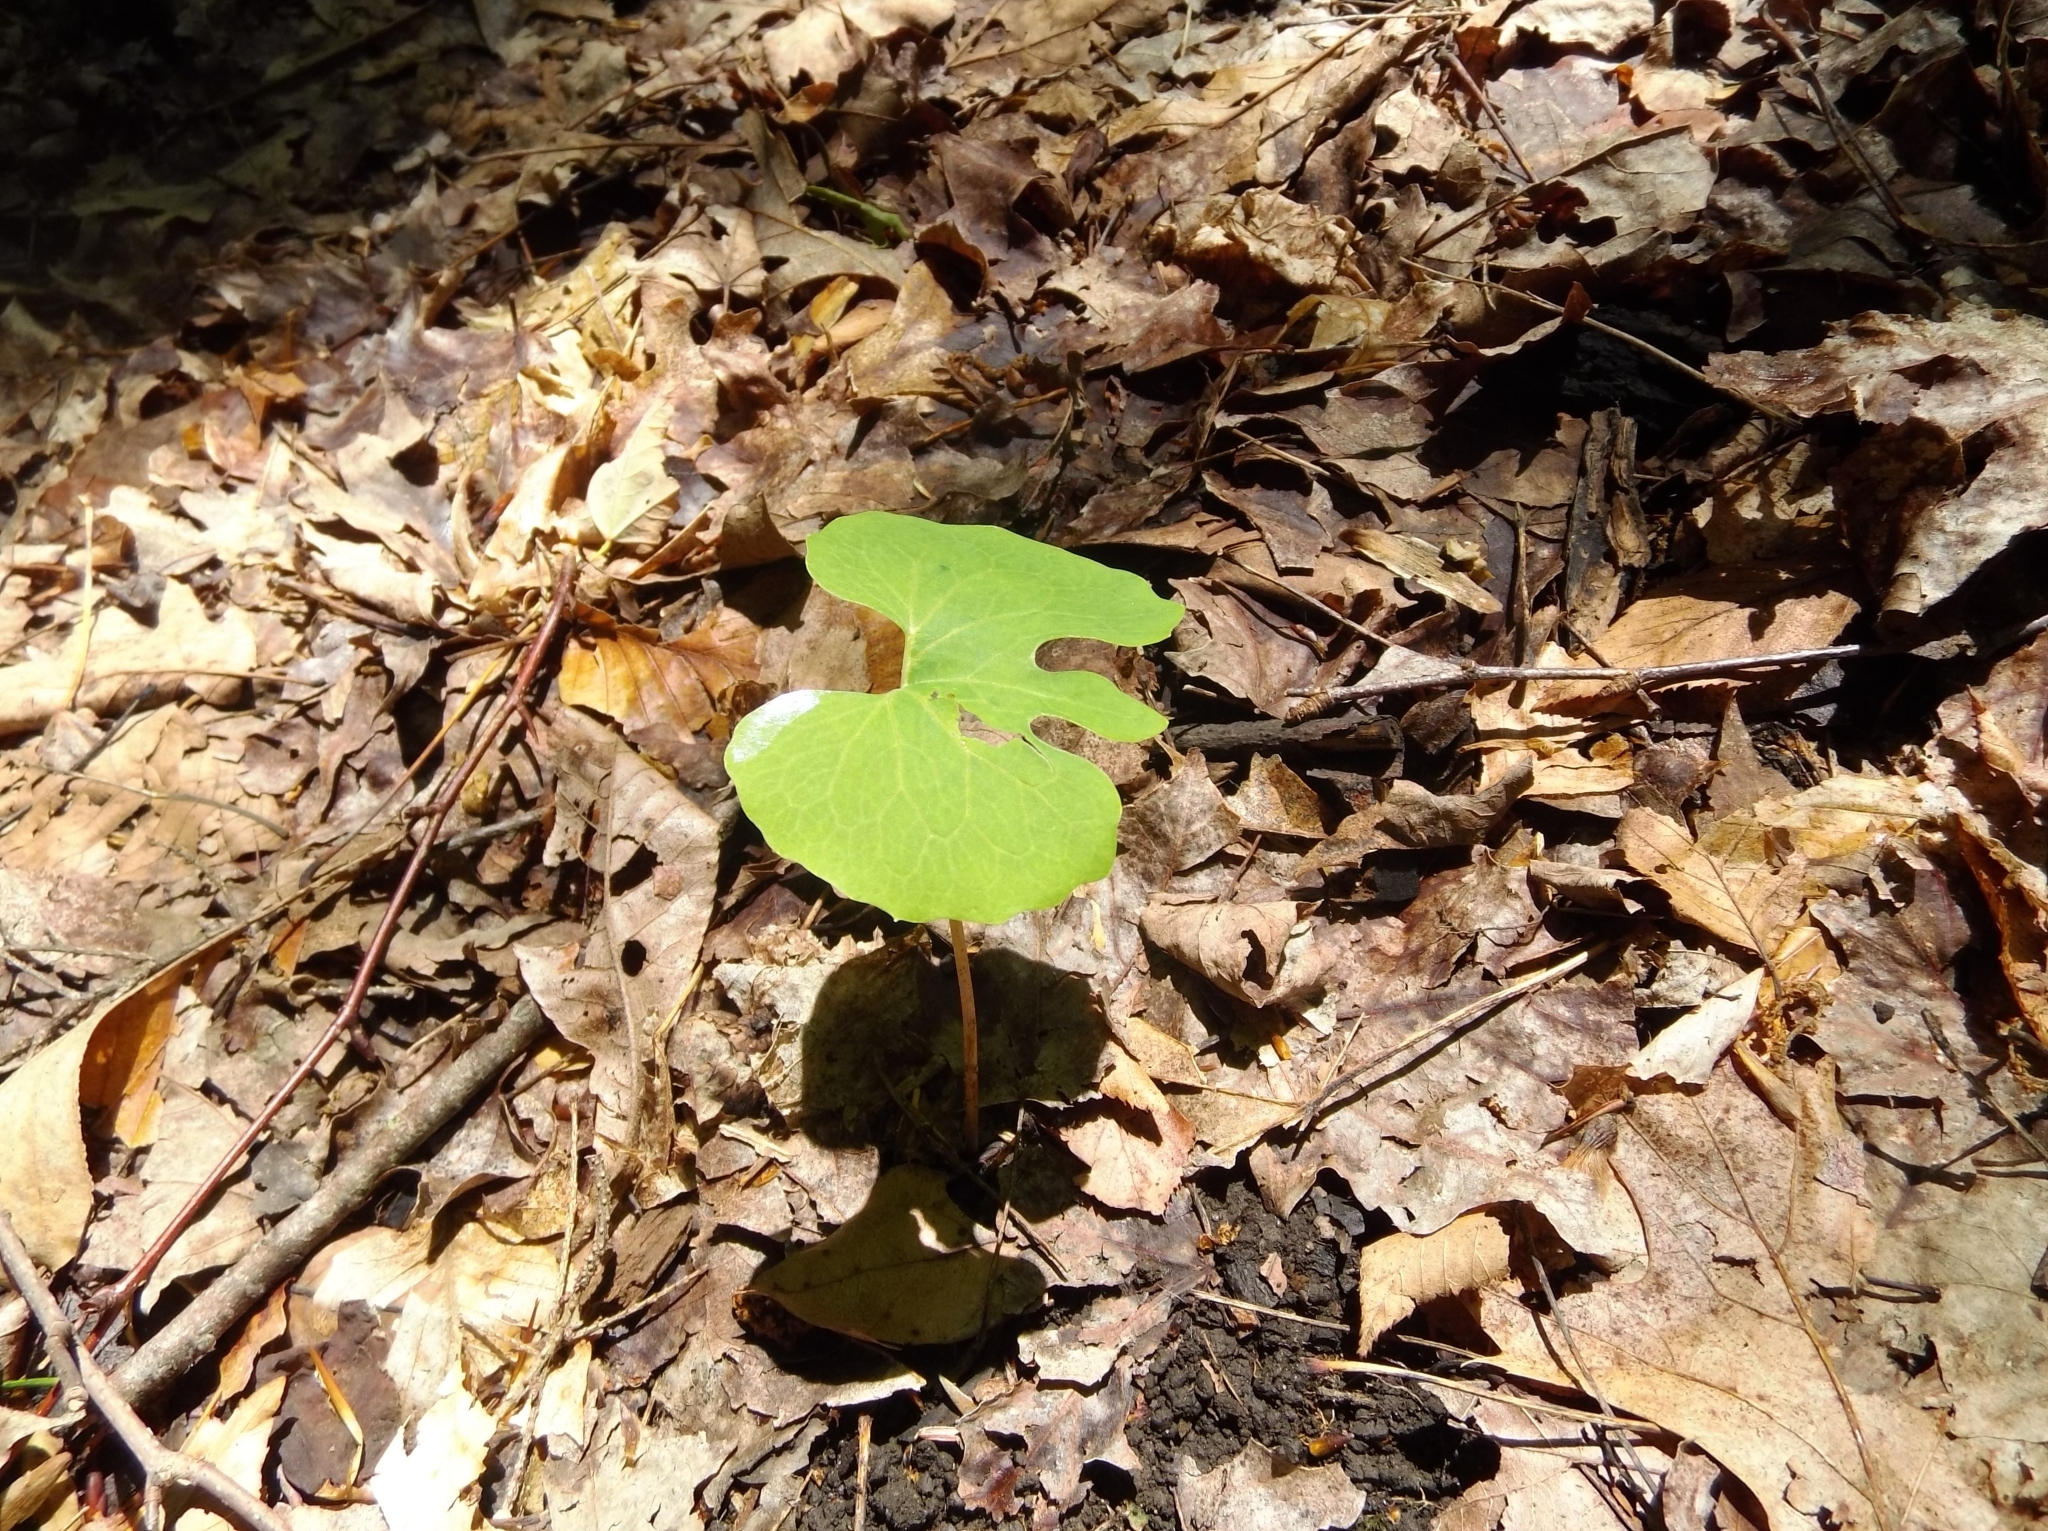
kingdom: Plantae
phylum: Tracheophyta
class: Magnoliopsida
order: Ranunculales
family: Papaveraceae
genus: Sanguinaria
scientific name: Sanguinaria canadensis
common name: Bloodroot
